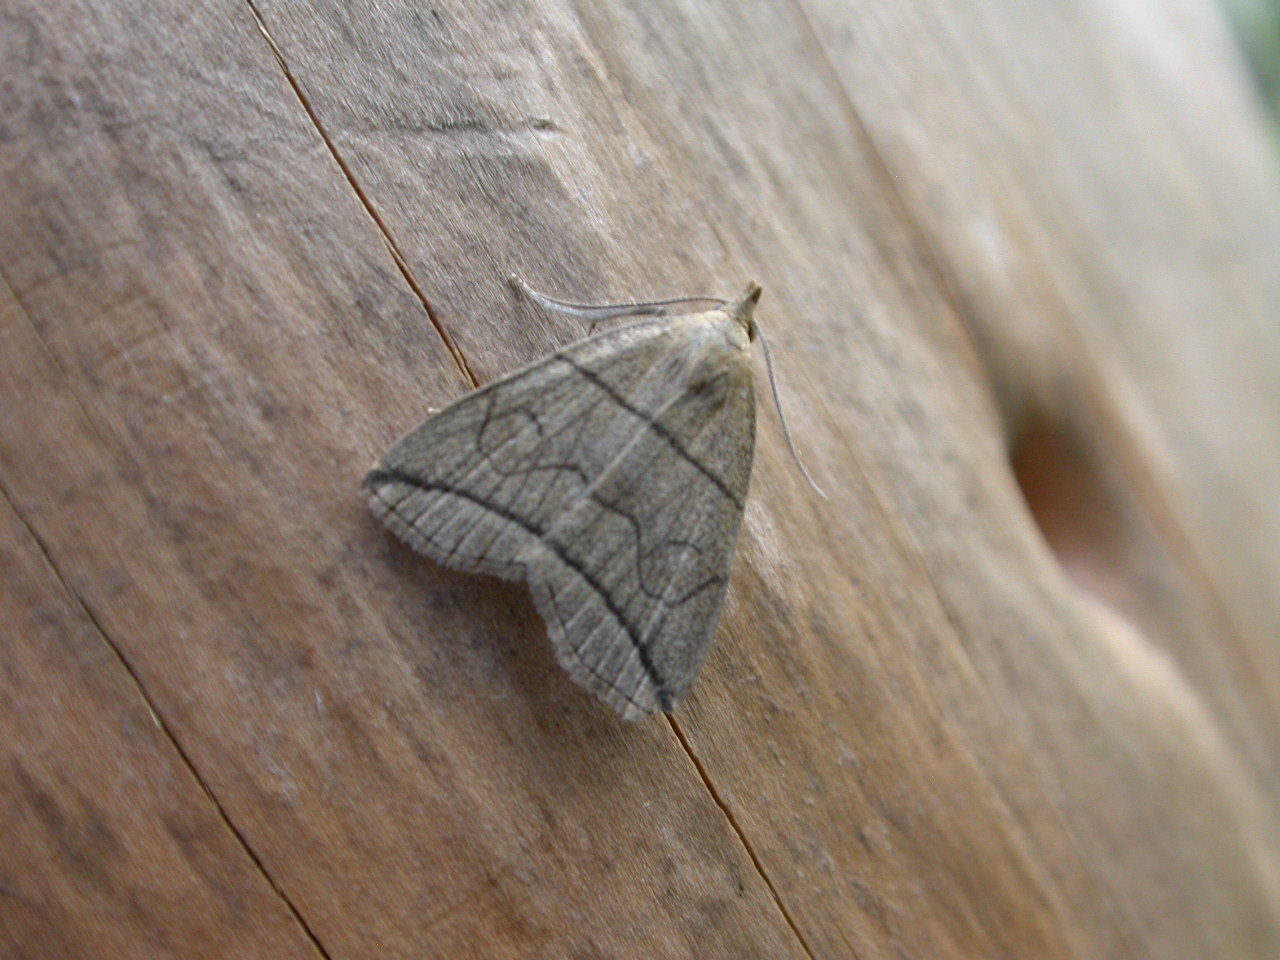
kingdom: Animalia
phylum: Arthropoda
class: Insecta
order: Lepidoptera
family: Erebidae
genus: Herminia
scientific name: Herminia grisealis
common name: Small fan-foot
